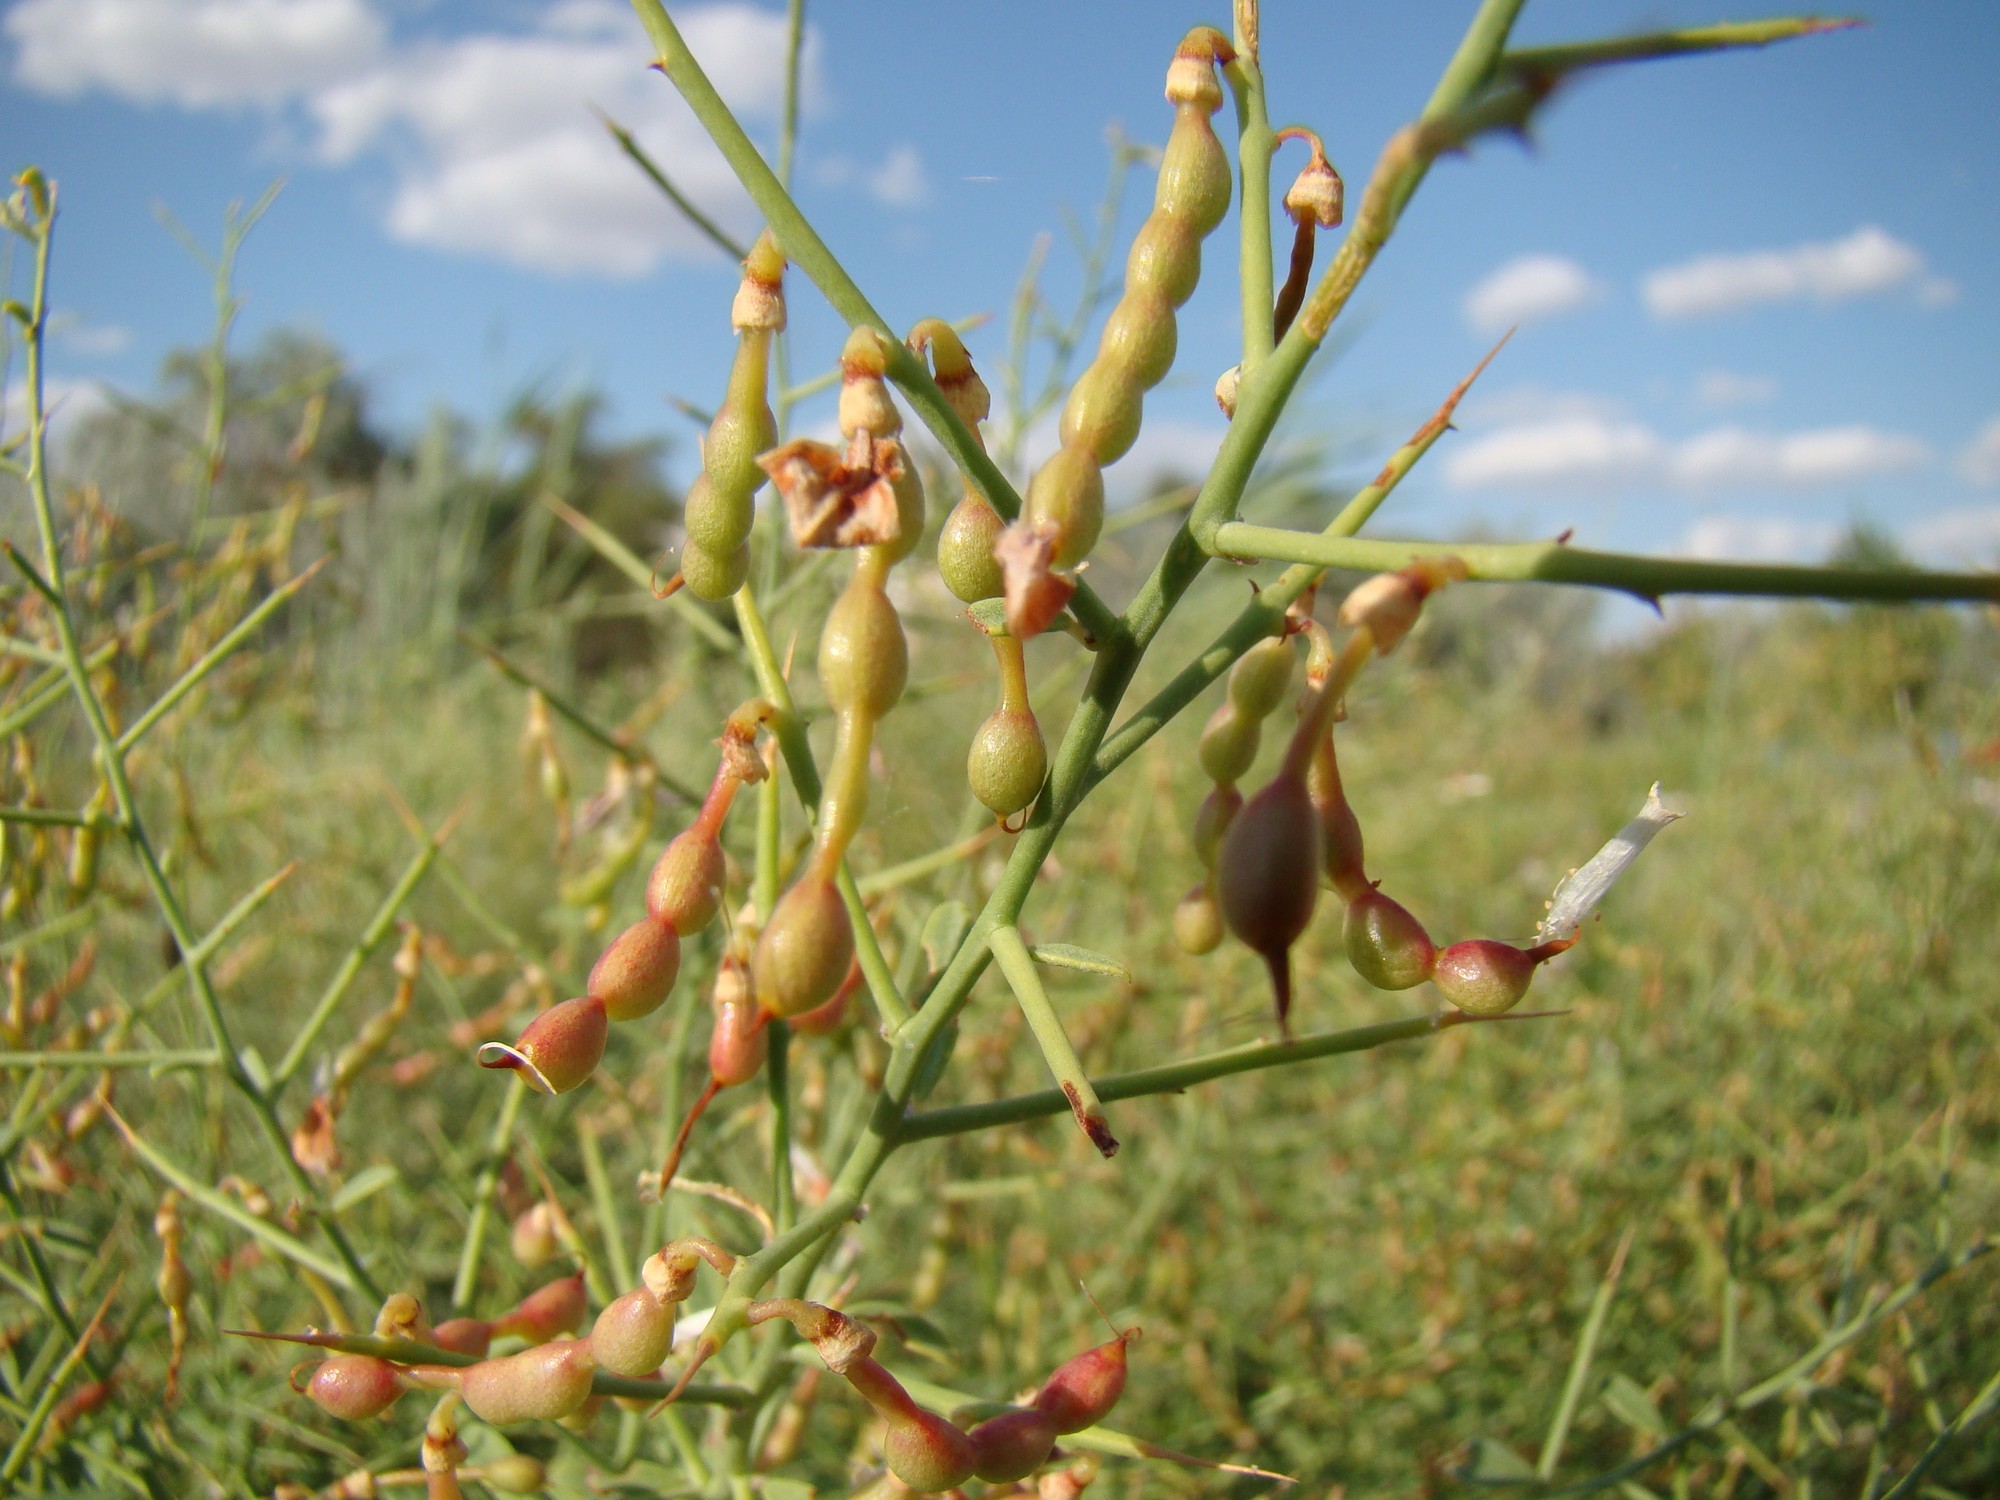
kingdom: Plantae
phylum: Tracheophyta
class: Magnoliopsida
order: Fabales
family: Fabaceae
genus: Alhagi
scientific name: Alhagi pseudalhagi
